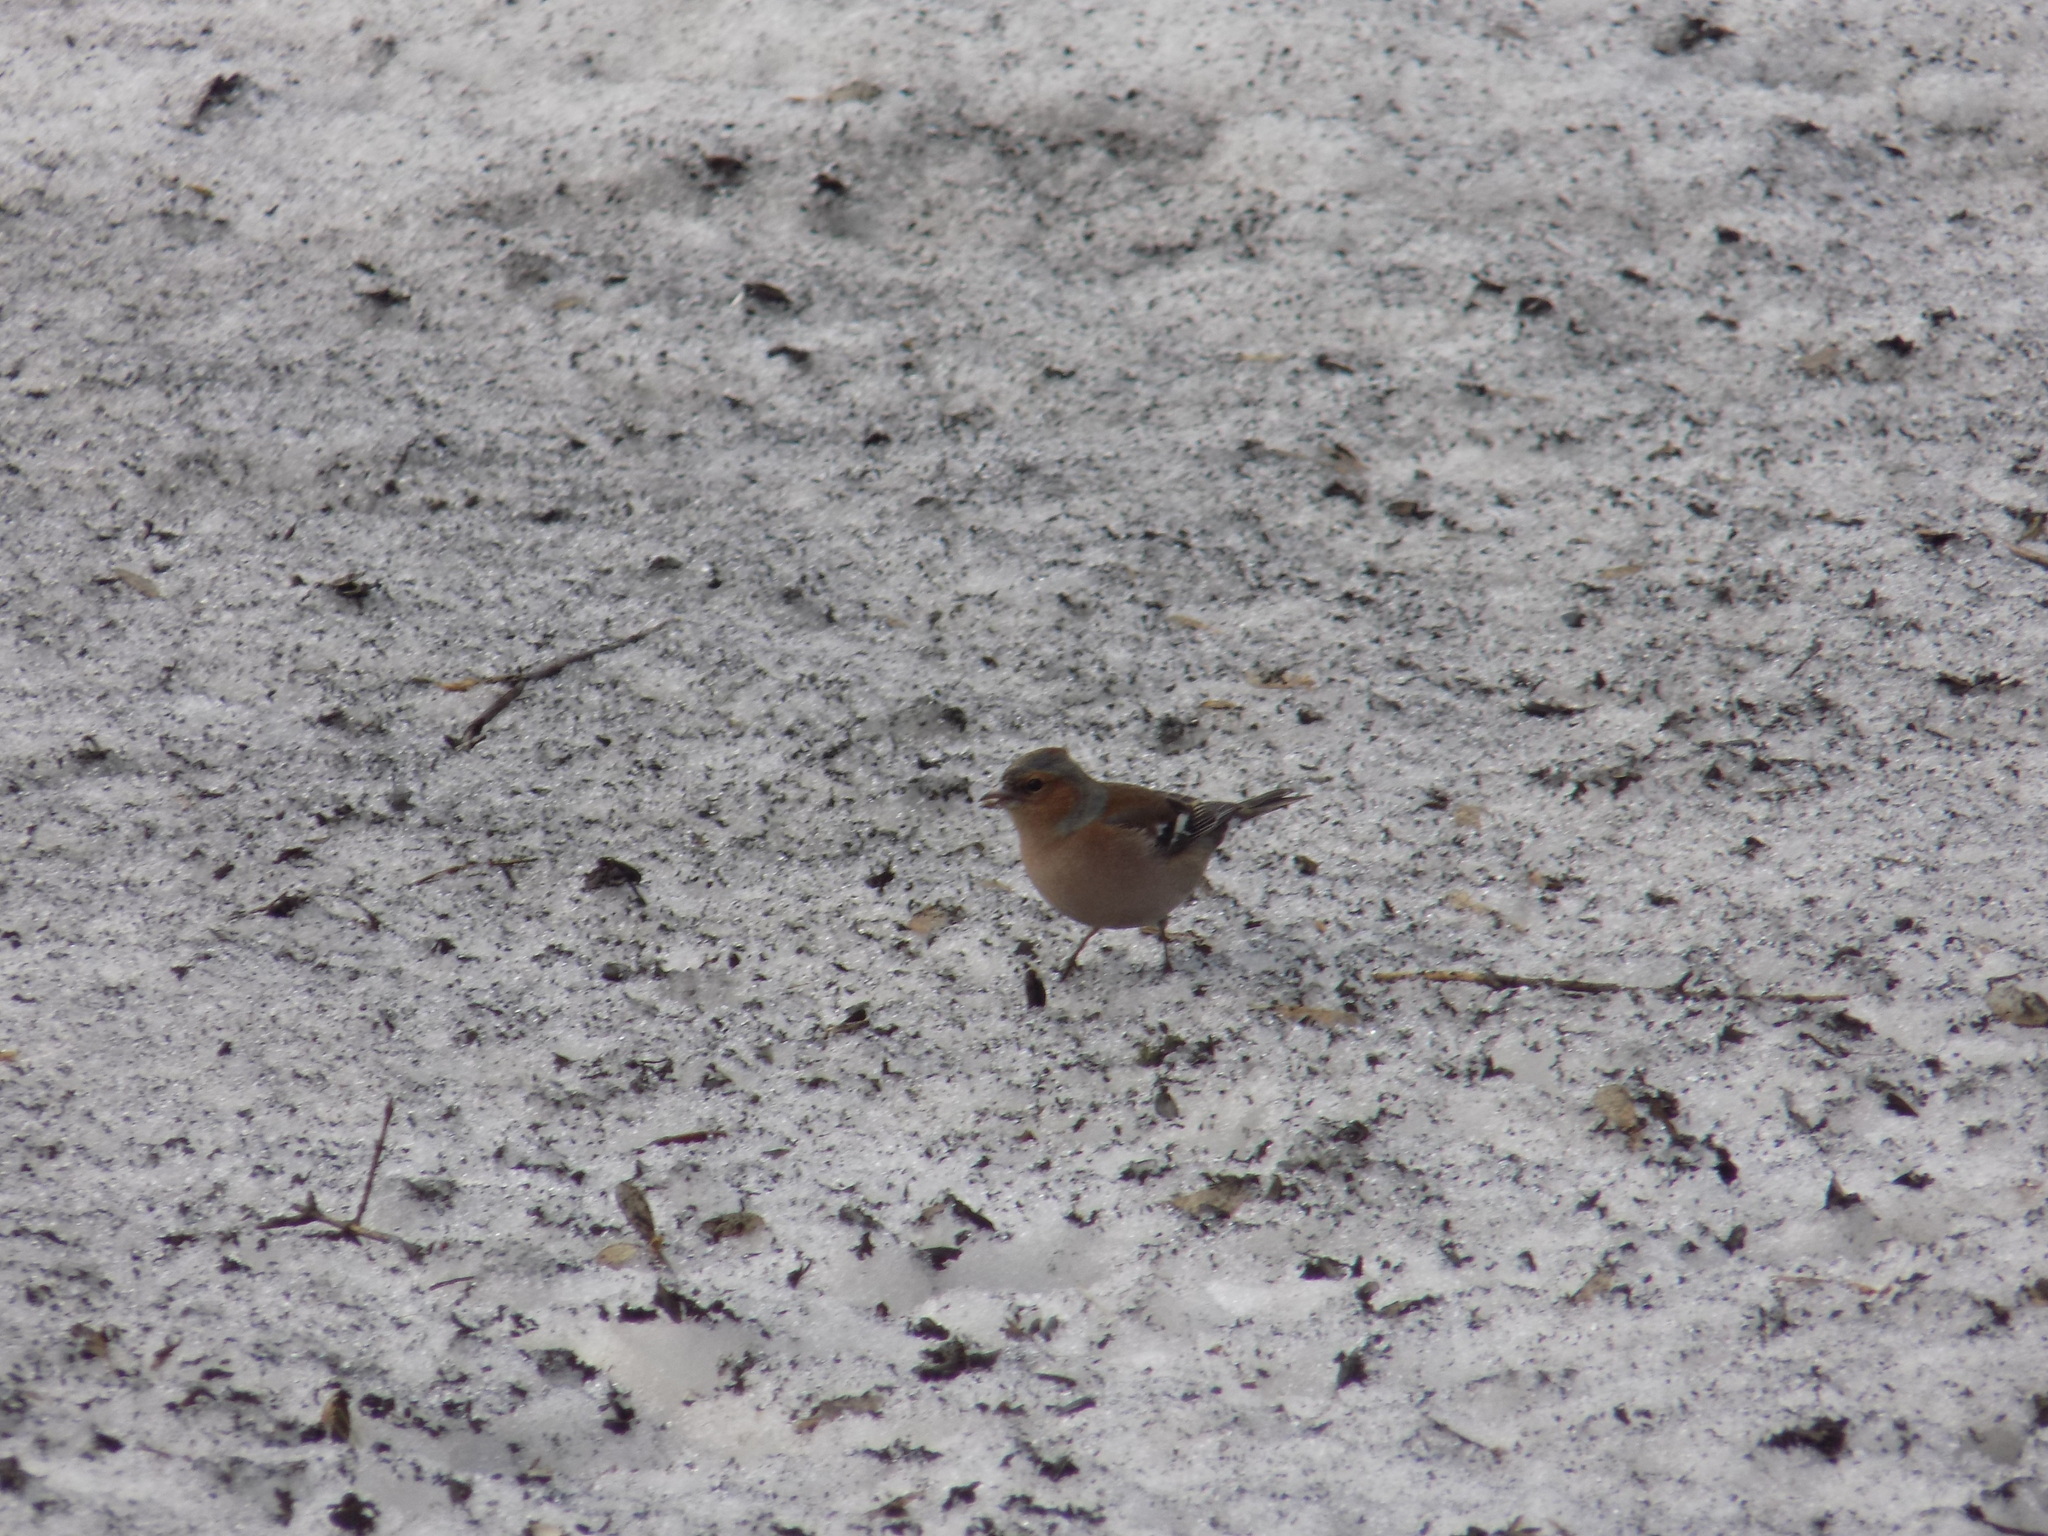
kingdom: Animalia
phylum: Chordata
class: Aves
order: Passeriformes
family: Fringillidae
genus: Fringilla
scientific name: Fringilla coelebs
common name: Common chaffinch
